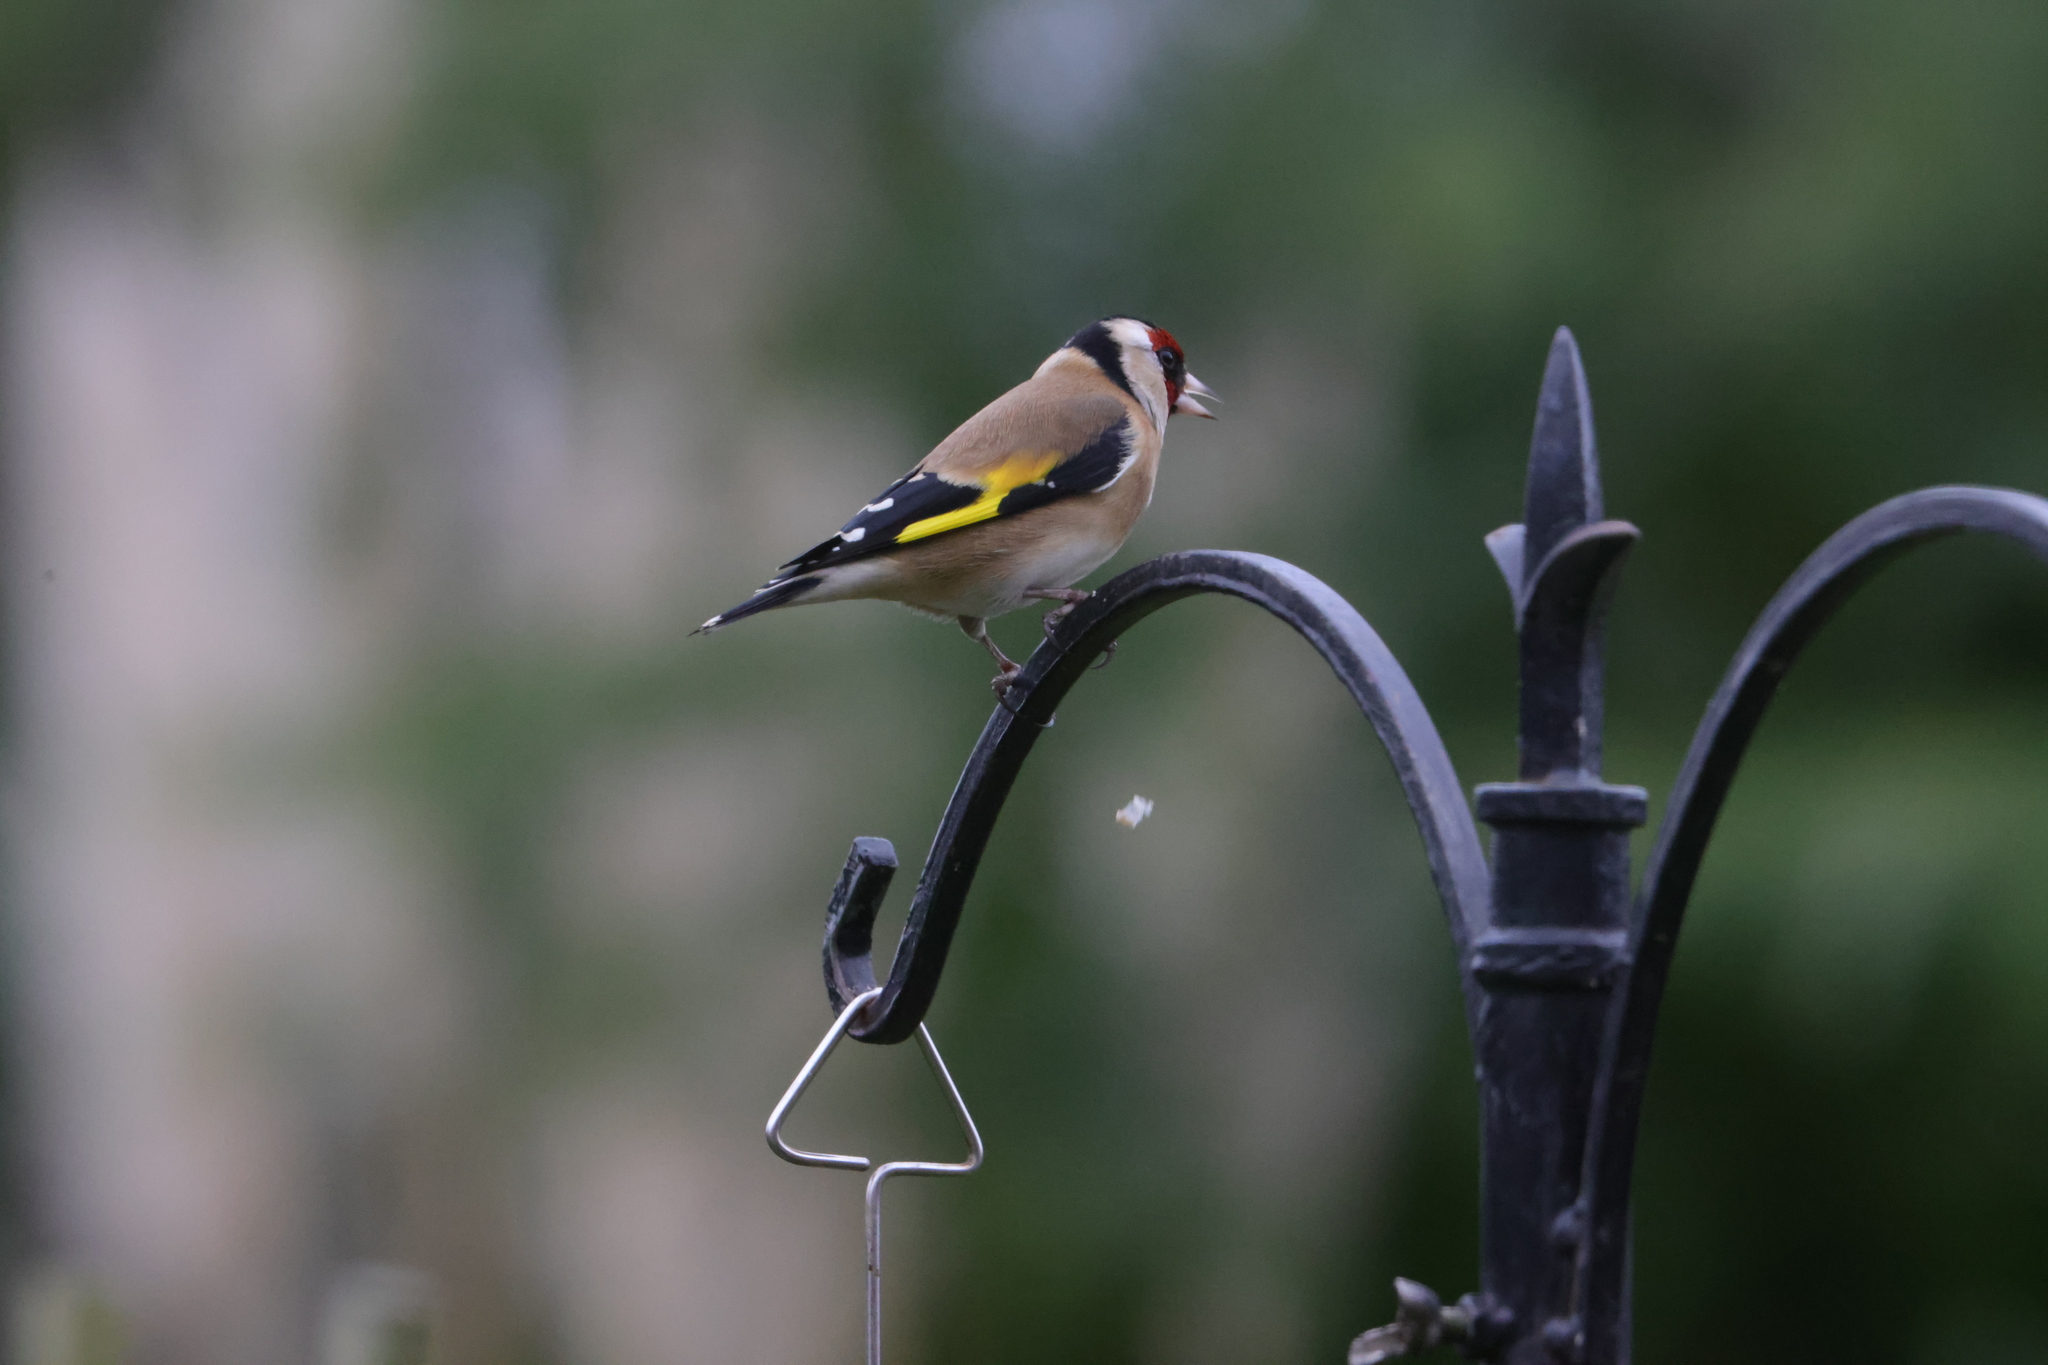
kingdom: Animalia
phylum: Chordata
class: Aves
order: Passeriformes
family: Fringillidae
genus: Carduelis
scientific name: Carduelis carduelis
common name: European goldfinch
